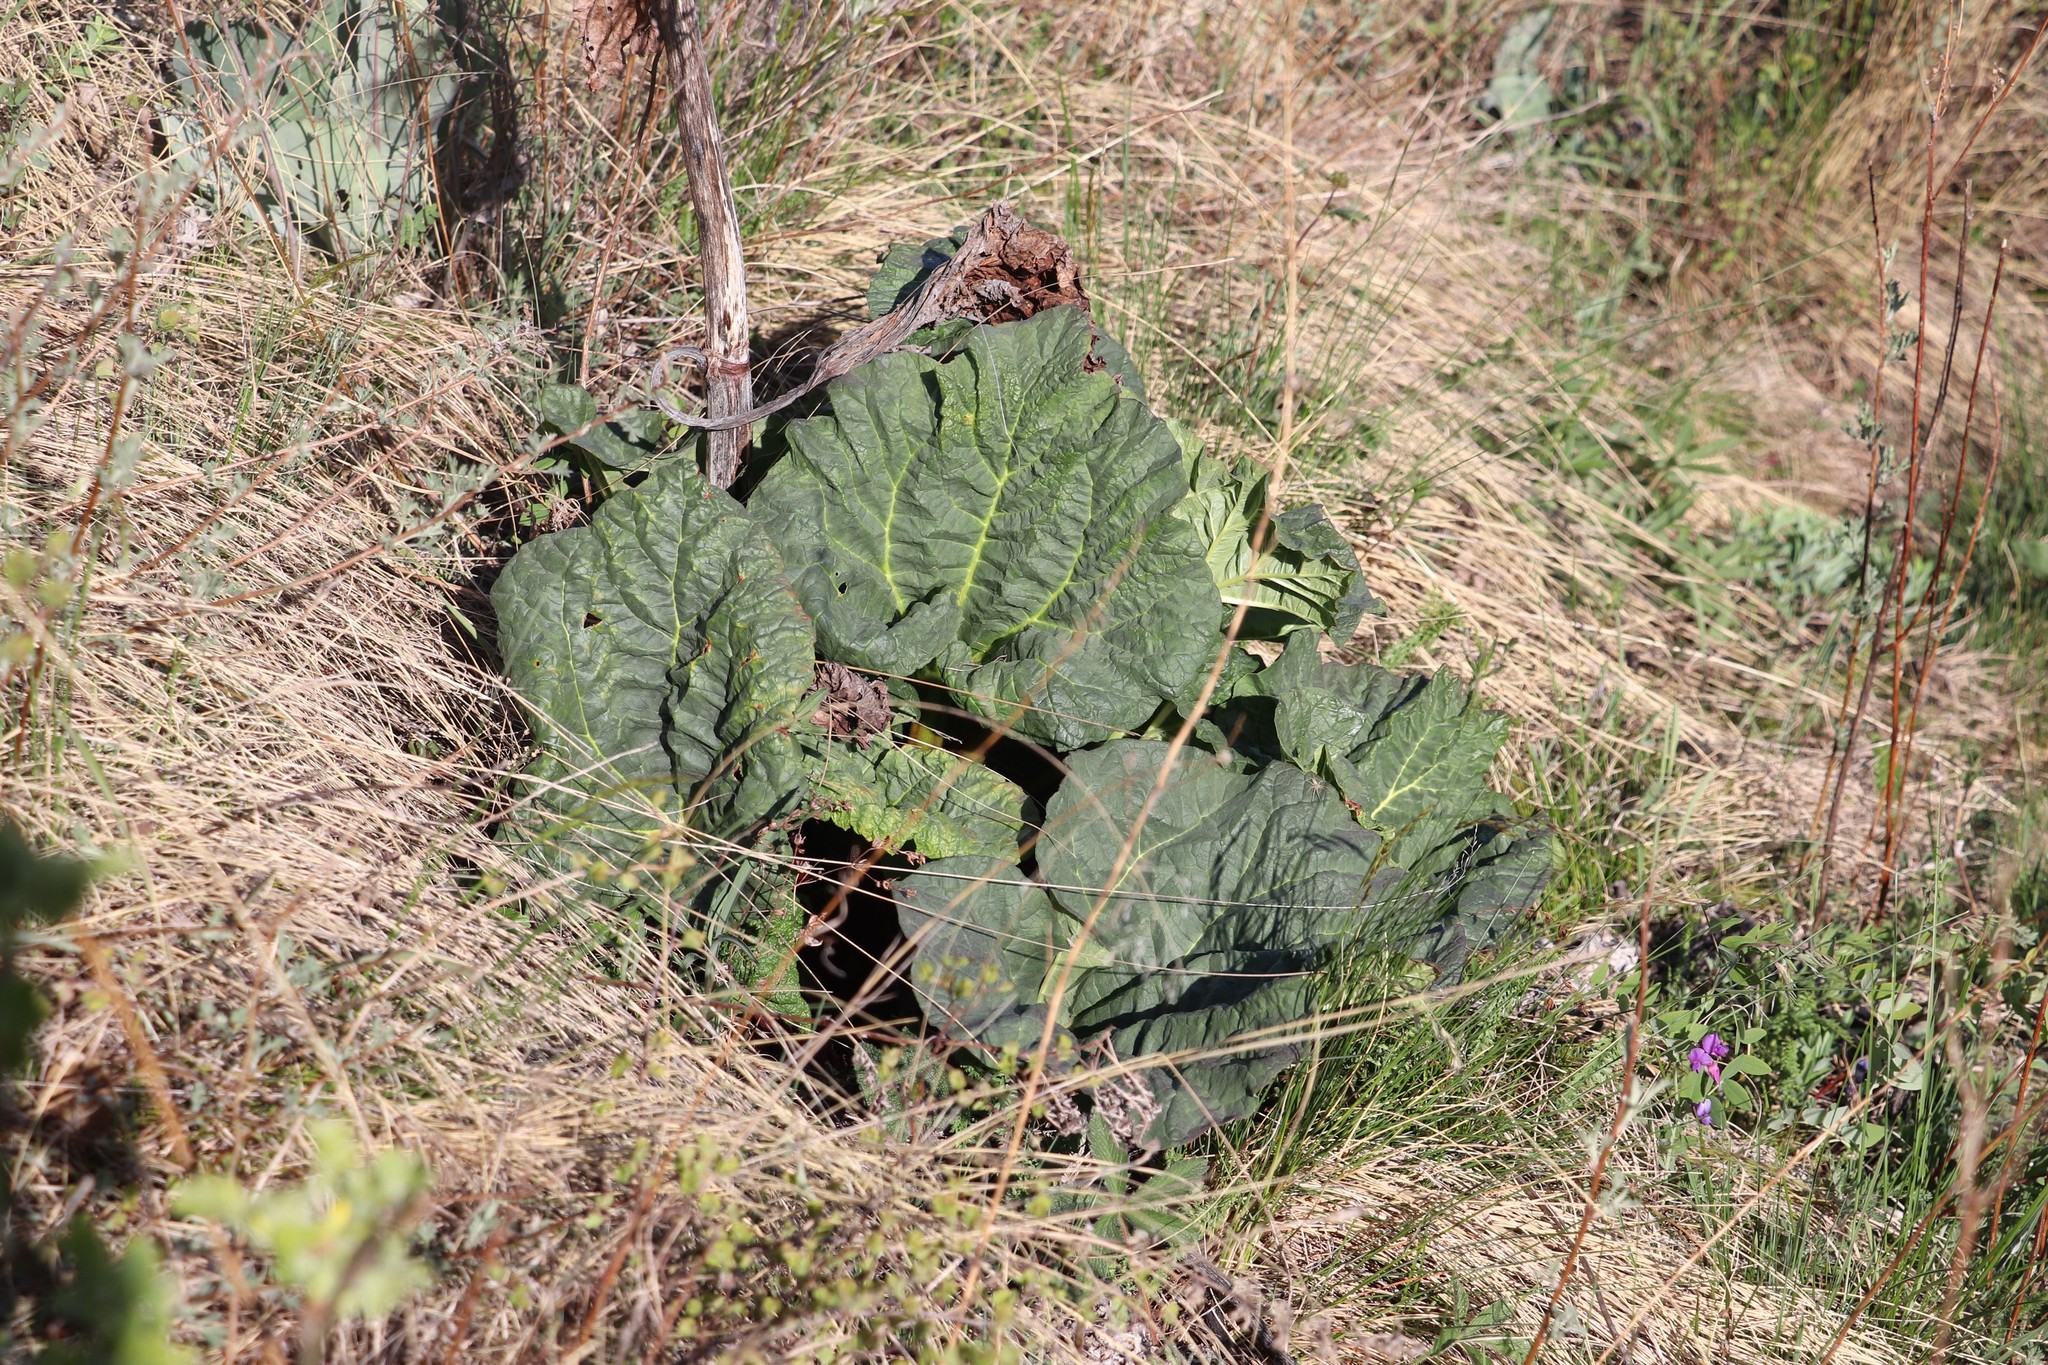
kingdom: Plantae
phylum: Tracheophyta
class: Magnoliopsida
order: Caryophyllales
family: Polygonaceae
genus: Rheum
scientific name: Rheum compactum
